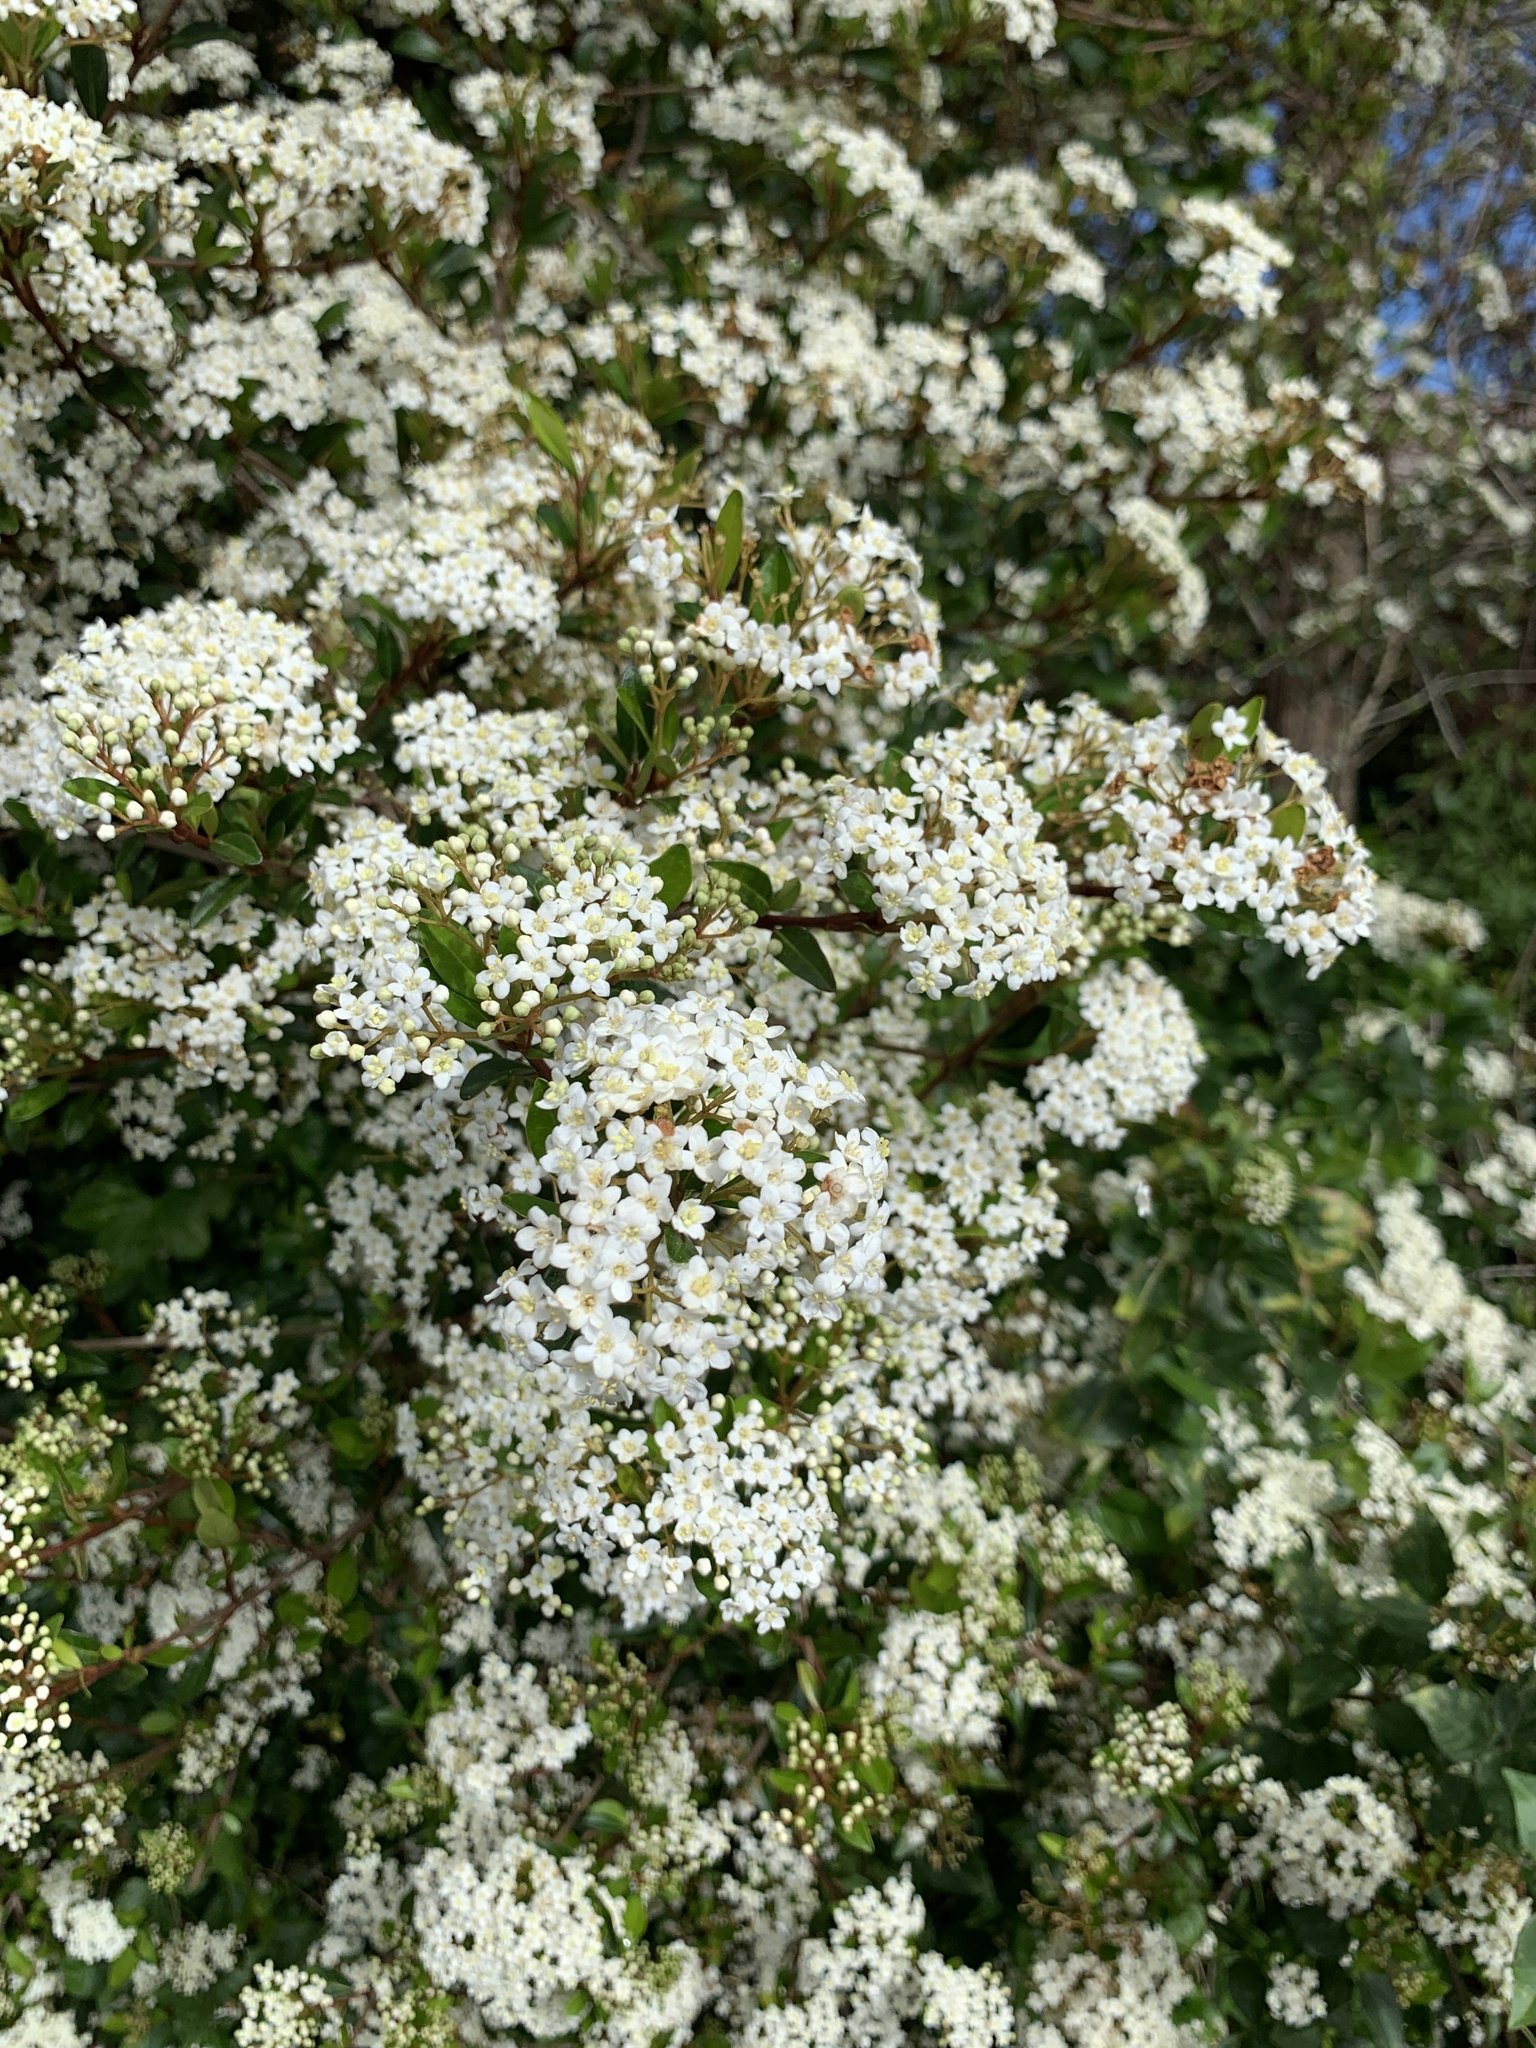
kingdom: Plantae
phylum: Tracheophyta
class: Magnoliopsida
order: Dipsacales
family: Viburnaceae
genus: Viburnum
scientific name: Viburnum obovatum
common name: Walter's viburnum
